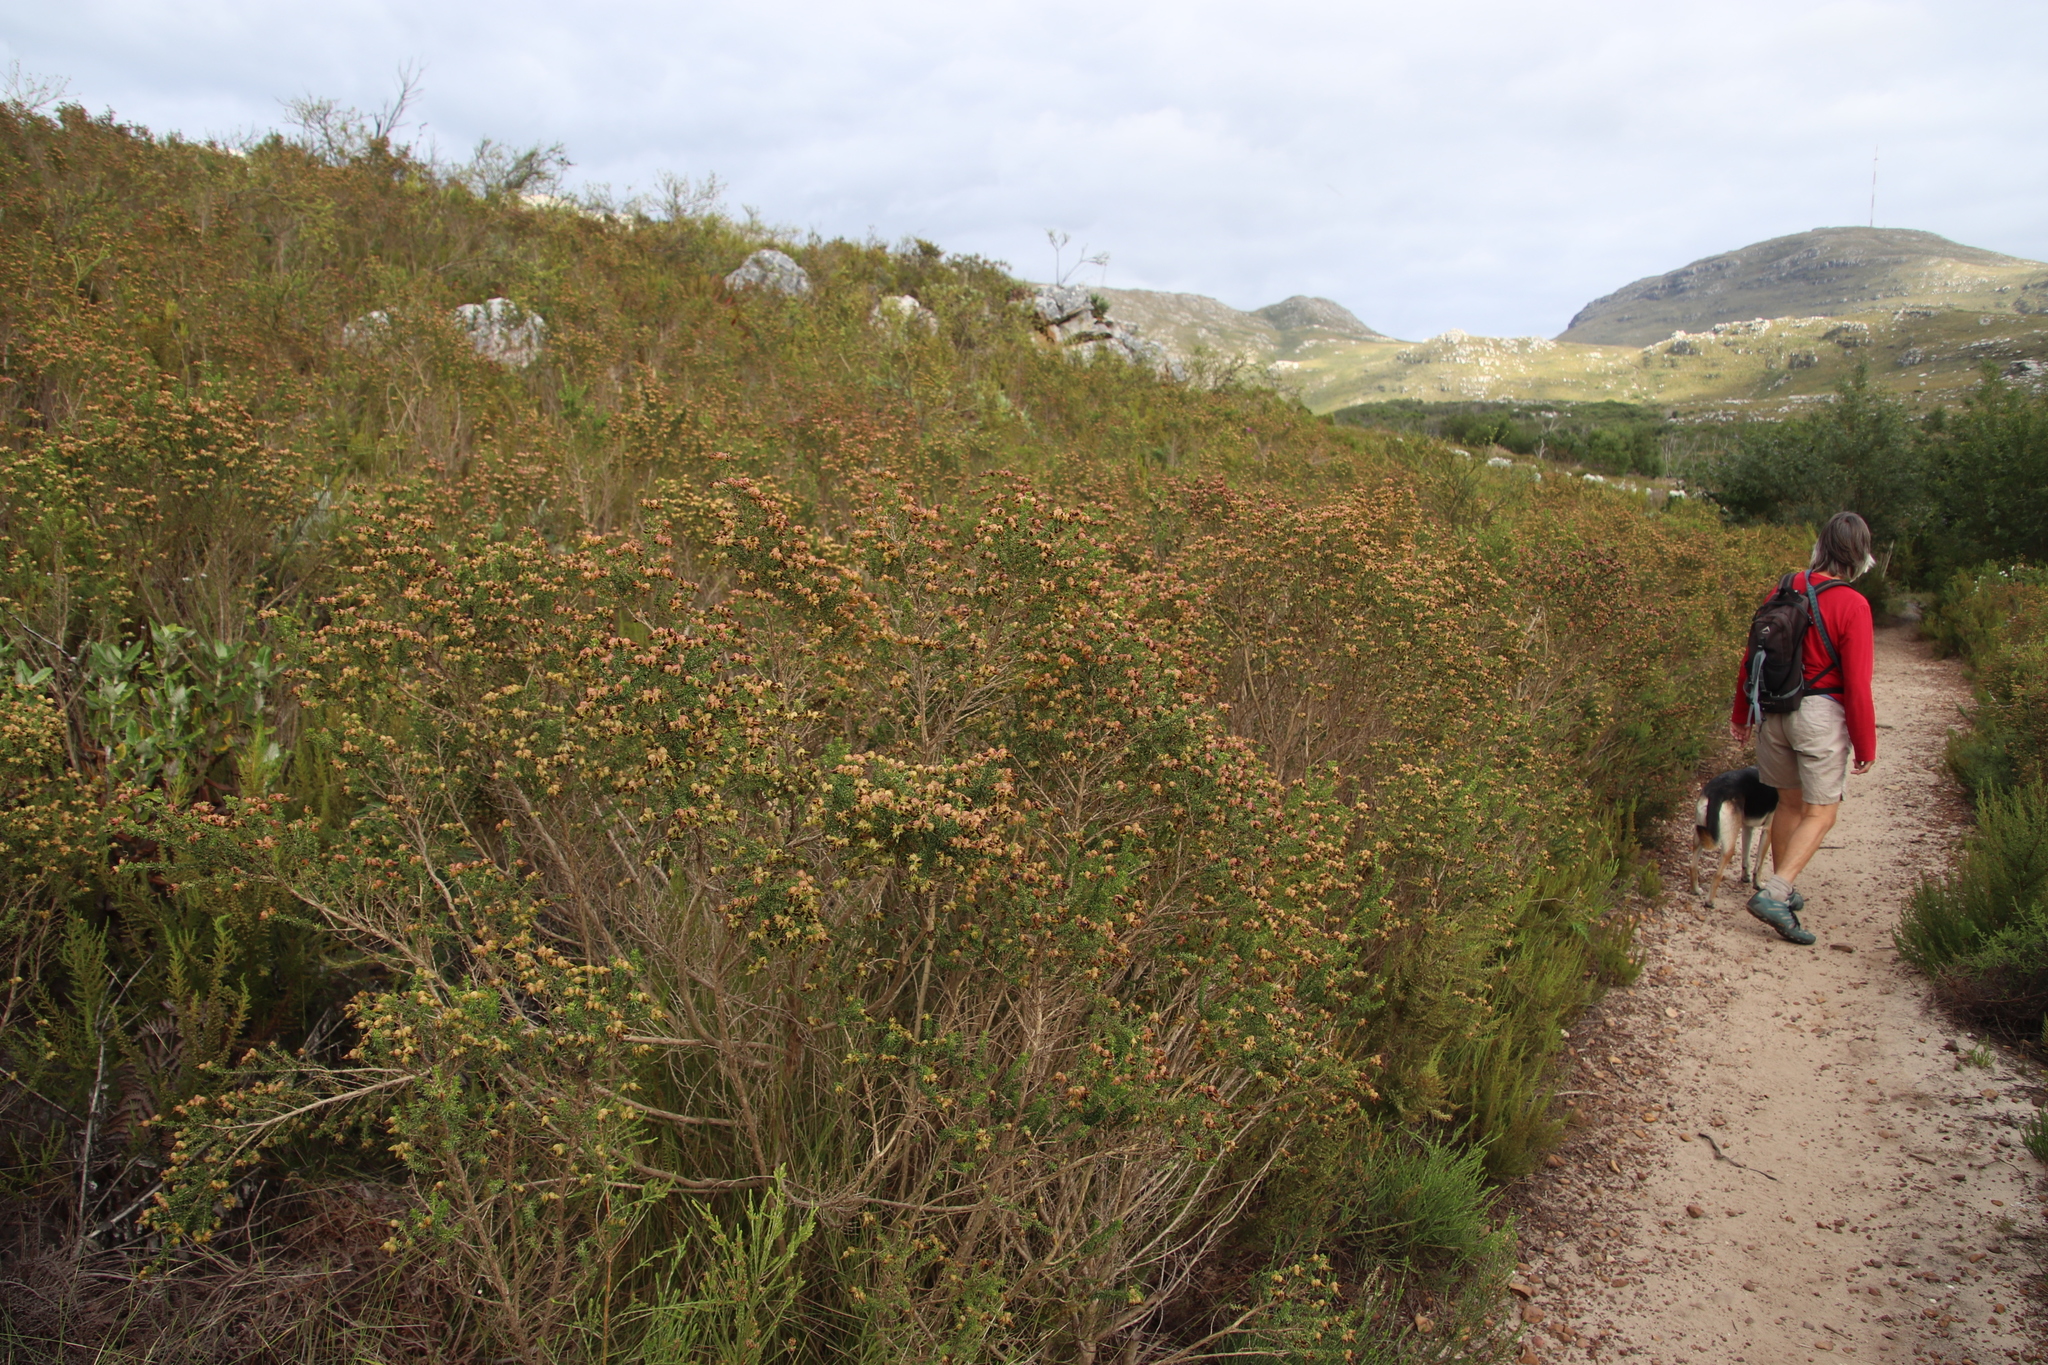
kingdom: Plantae
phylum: Tracheophyta
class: Magnoliopsida
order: Fabales
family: Fabaceae
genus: Aspalathus
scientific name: Aspalathus carnosa
